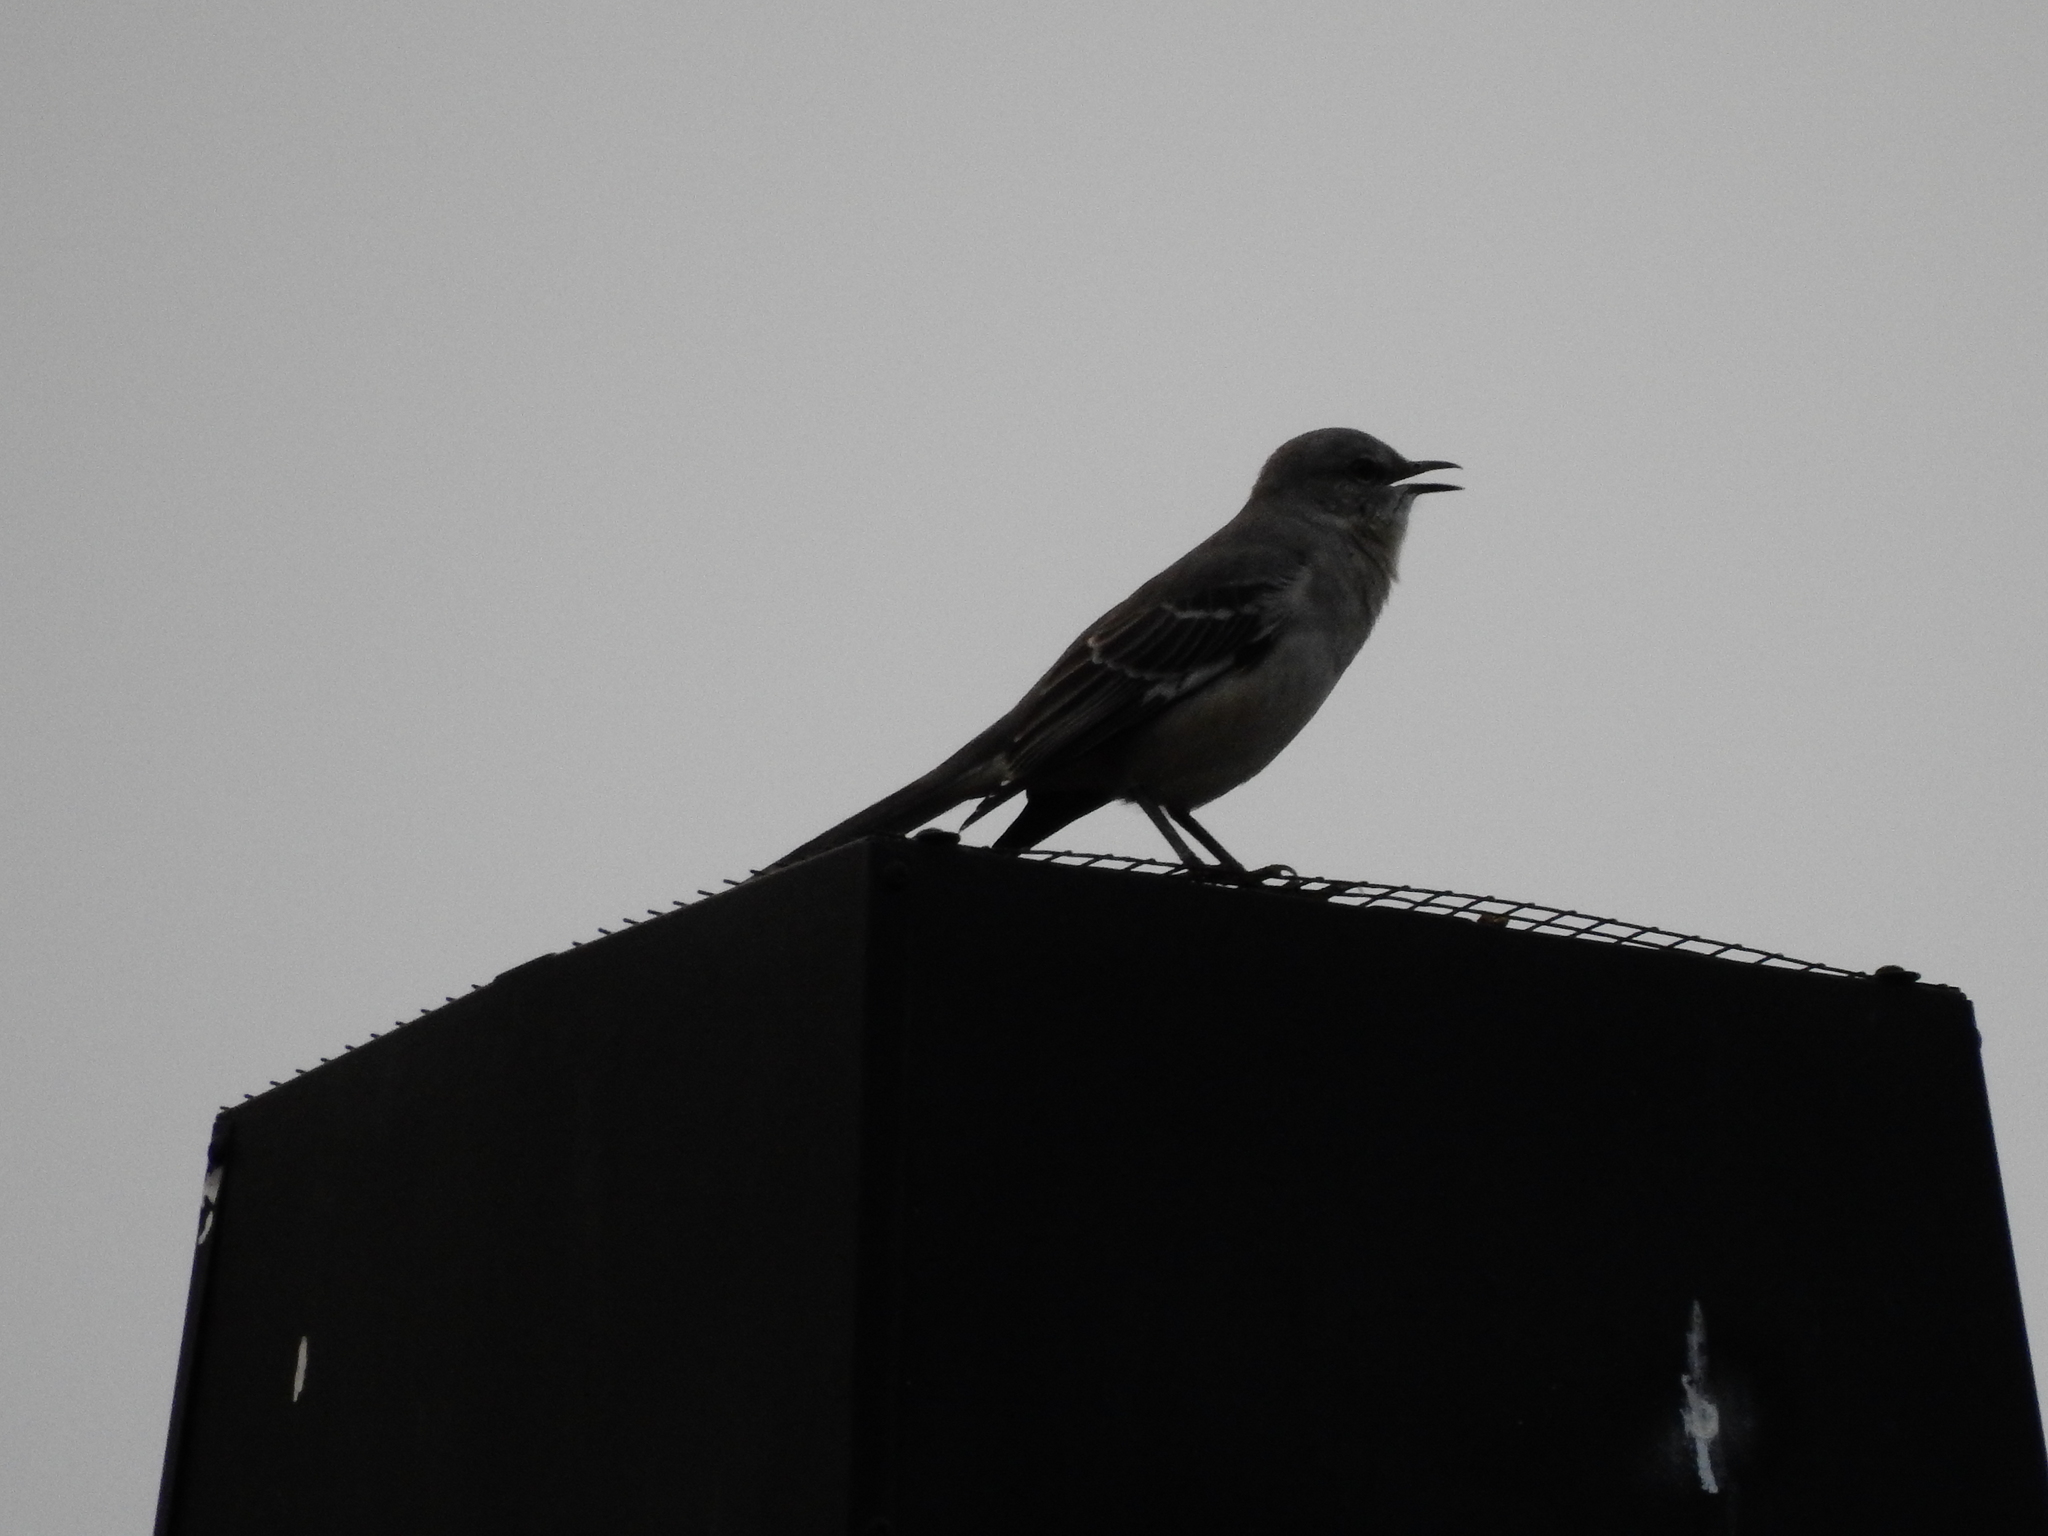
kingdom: Animalia
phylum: Chordata
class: Aves
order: Passeriformes
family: Mimidae
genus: Mimus
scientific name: Mimus polyglottos
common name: Northern mockingbird
